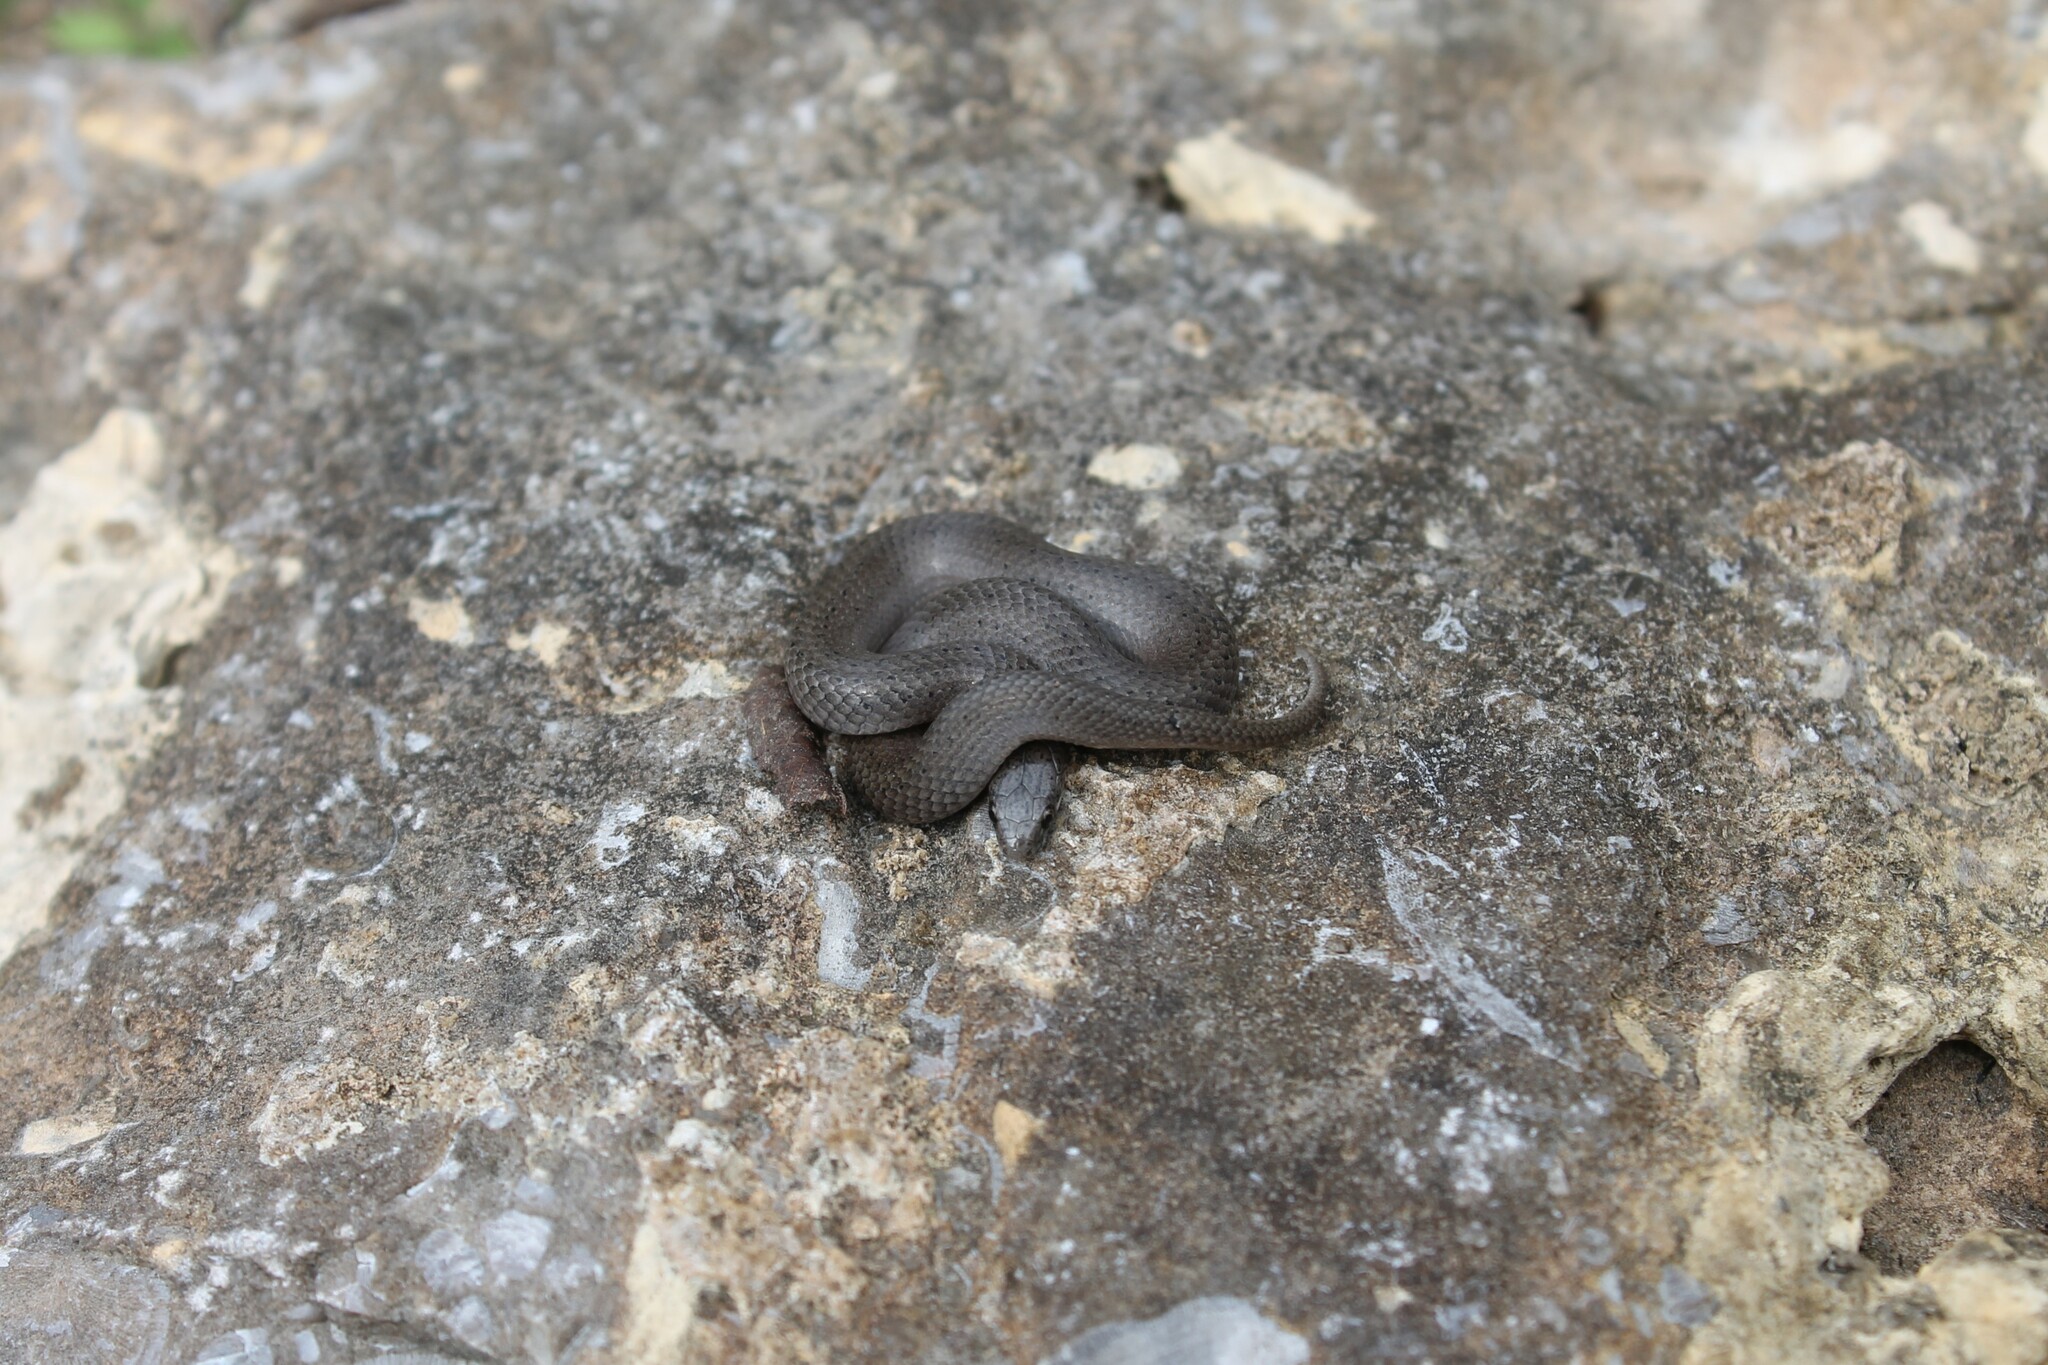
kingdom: Animalia
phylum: Chordata
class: Squamata
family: Colubridae
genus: Virginia
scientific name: Virginia valeriae
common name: Smooth earth snake
